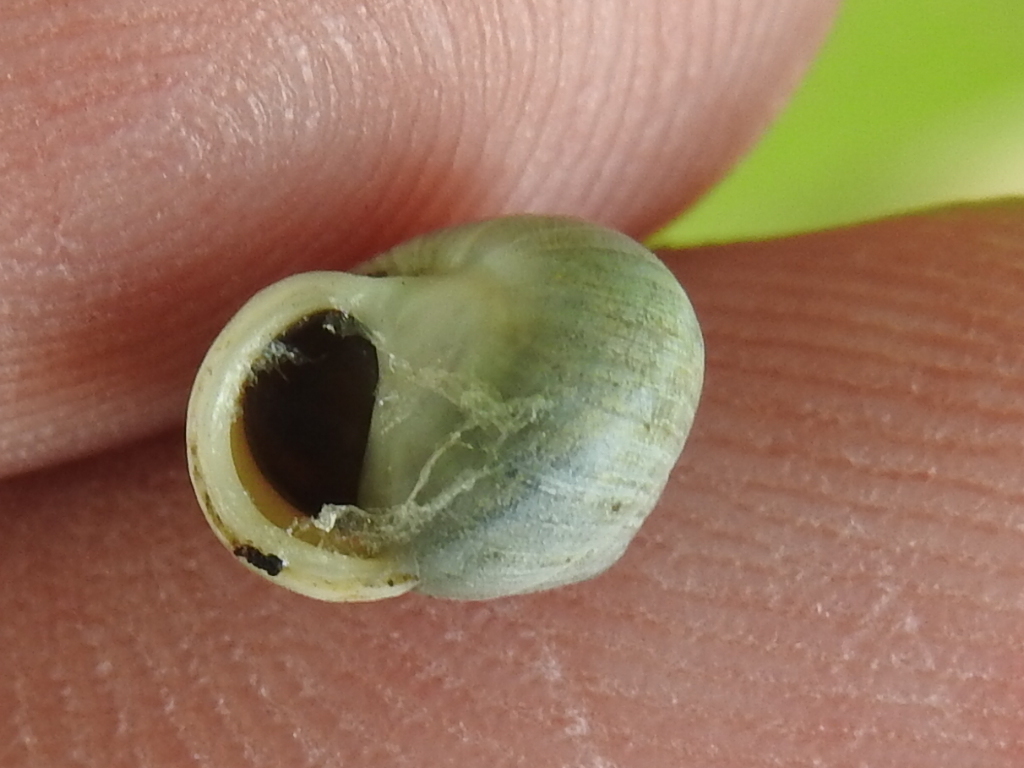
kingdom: Animalia
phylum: Mollusca
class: Gastropoda
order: Cycloneritida
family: Helicinidae
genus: Helicina
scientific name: Helicina orbiculata
